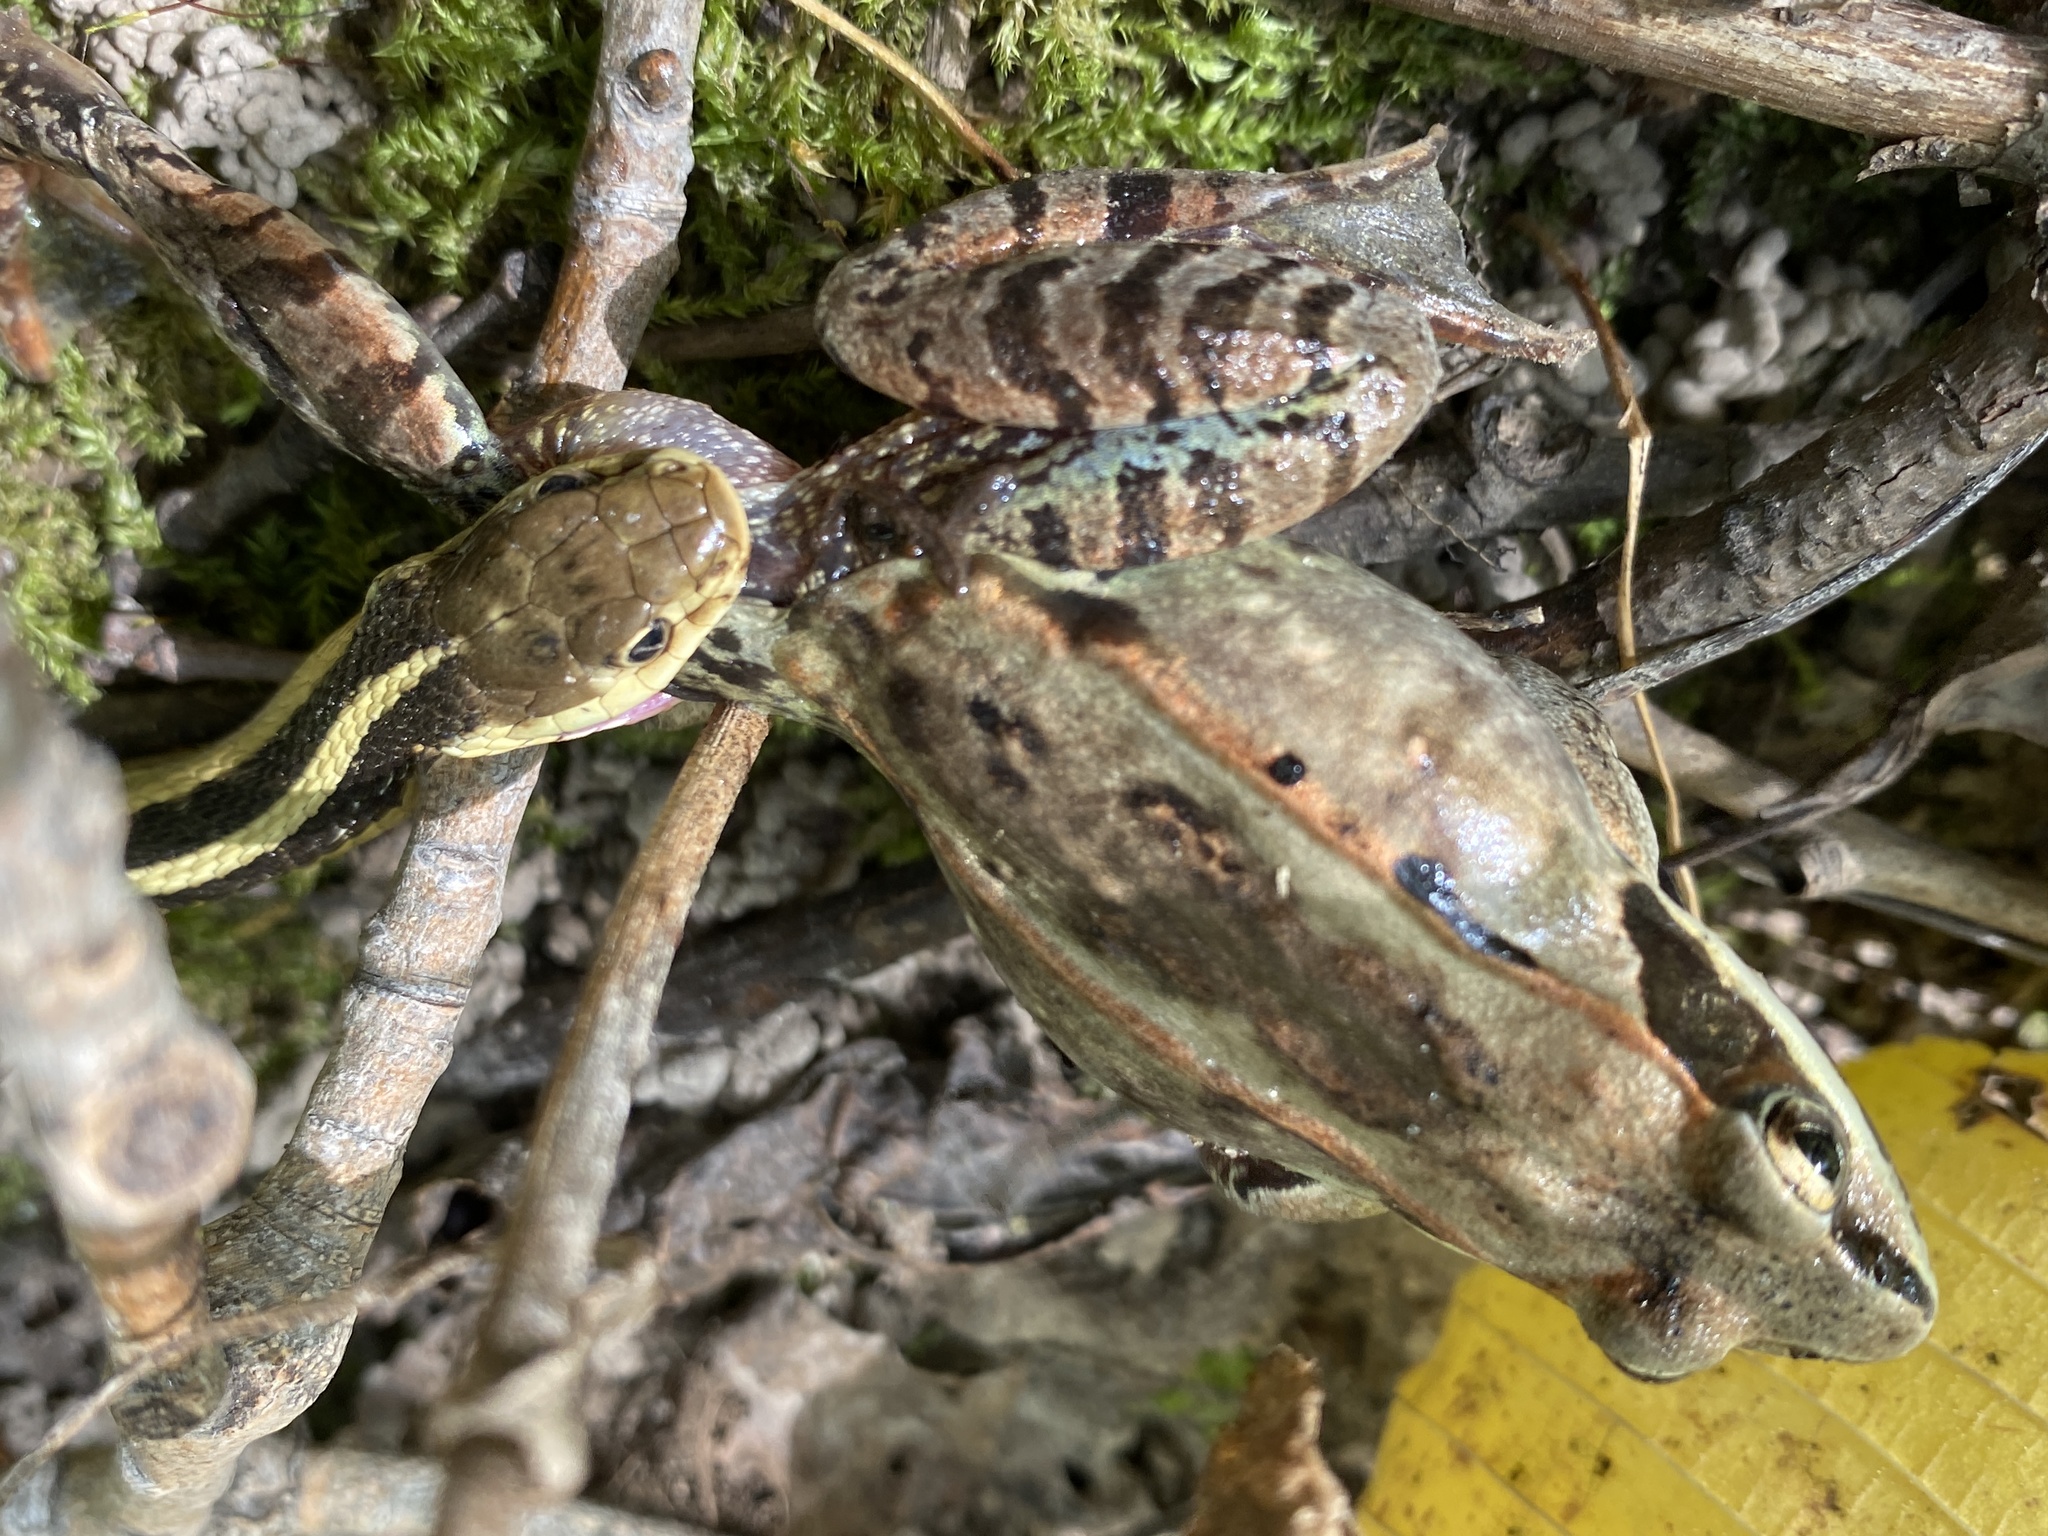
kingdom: Animalia
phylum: Chordata
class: Amphibia
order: Anura
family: Ranidae
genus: Lithobates
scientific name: Lithobates sylvaticus
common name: Wood frog
